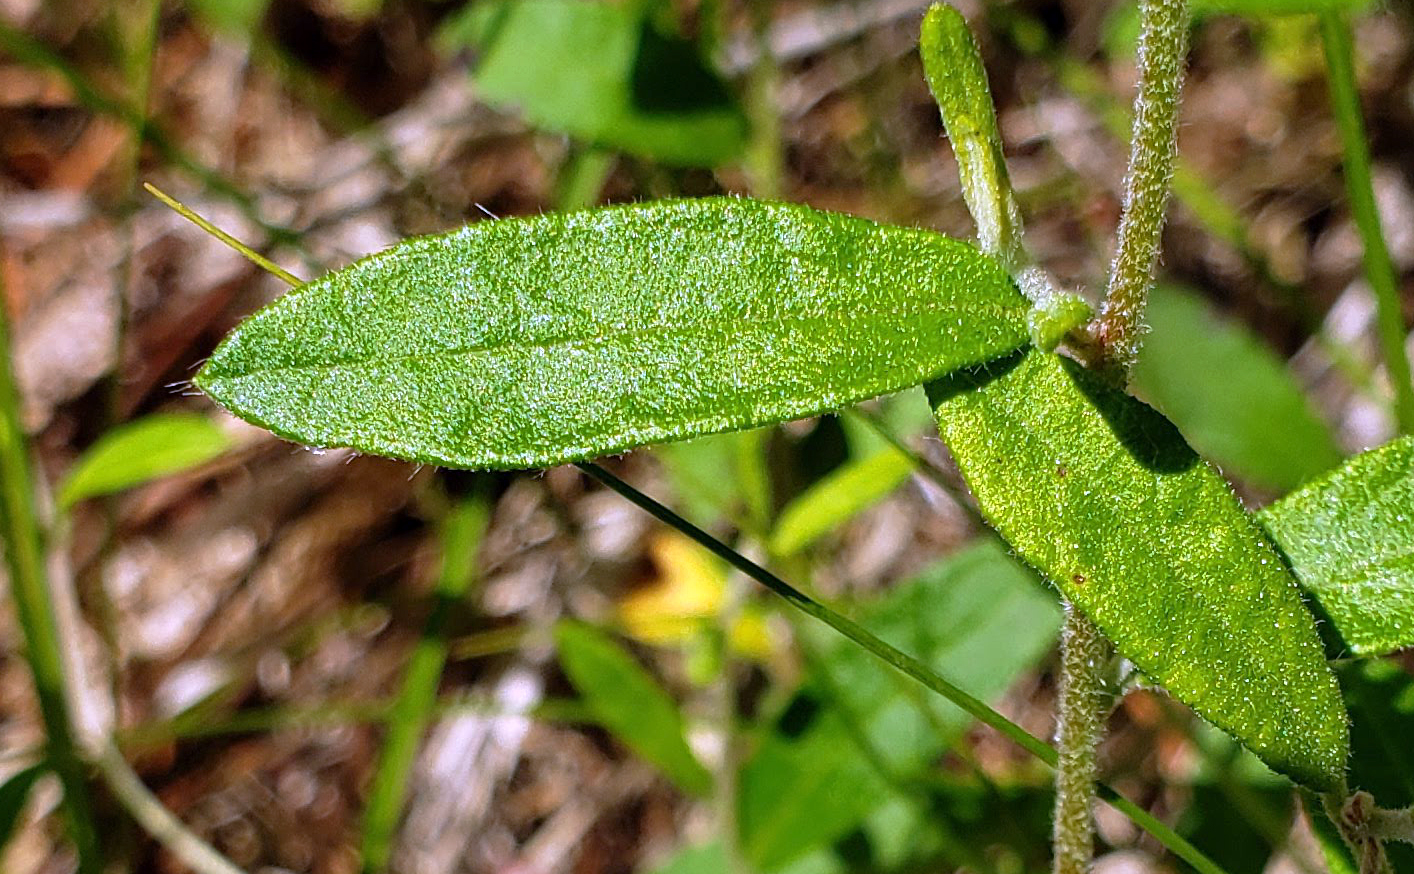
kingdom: Plantae
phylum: Tracheophyta
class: Magnoliopsida
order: Malvales
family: Cistaceae
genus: Crocanthemum
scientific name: Crocanthemum canadense
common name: Canada frostweed
